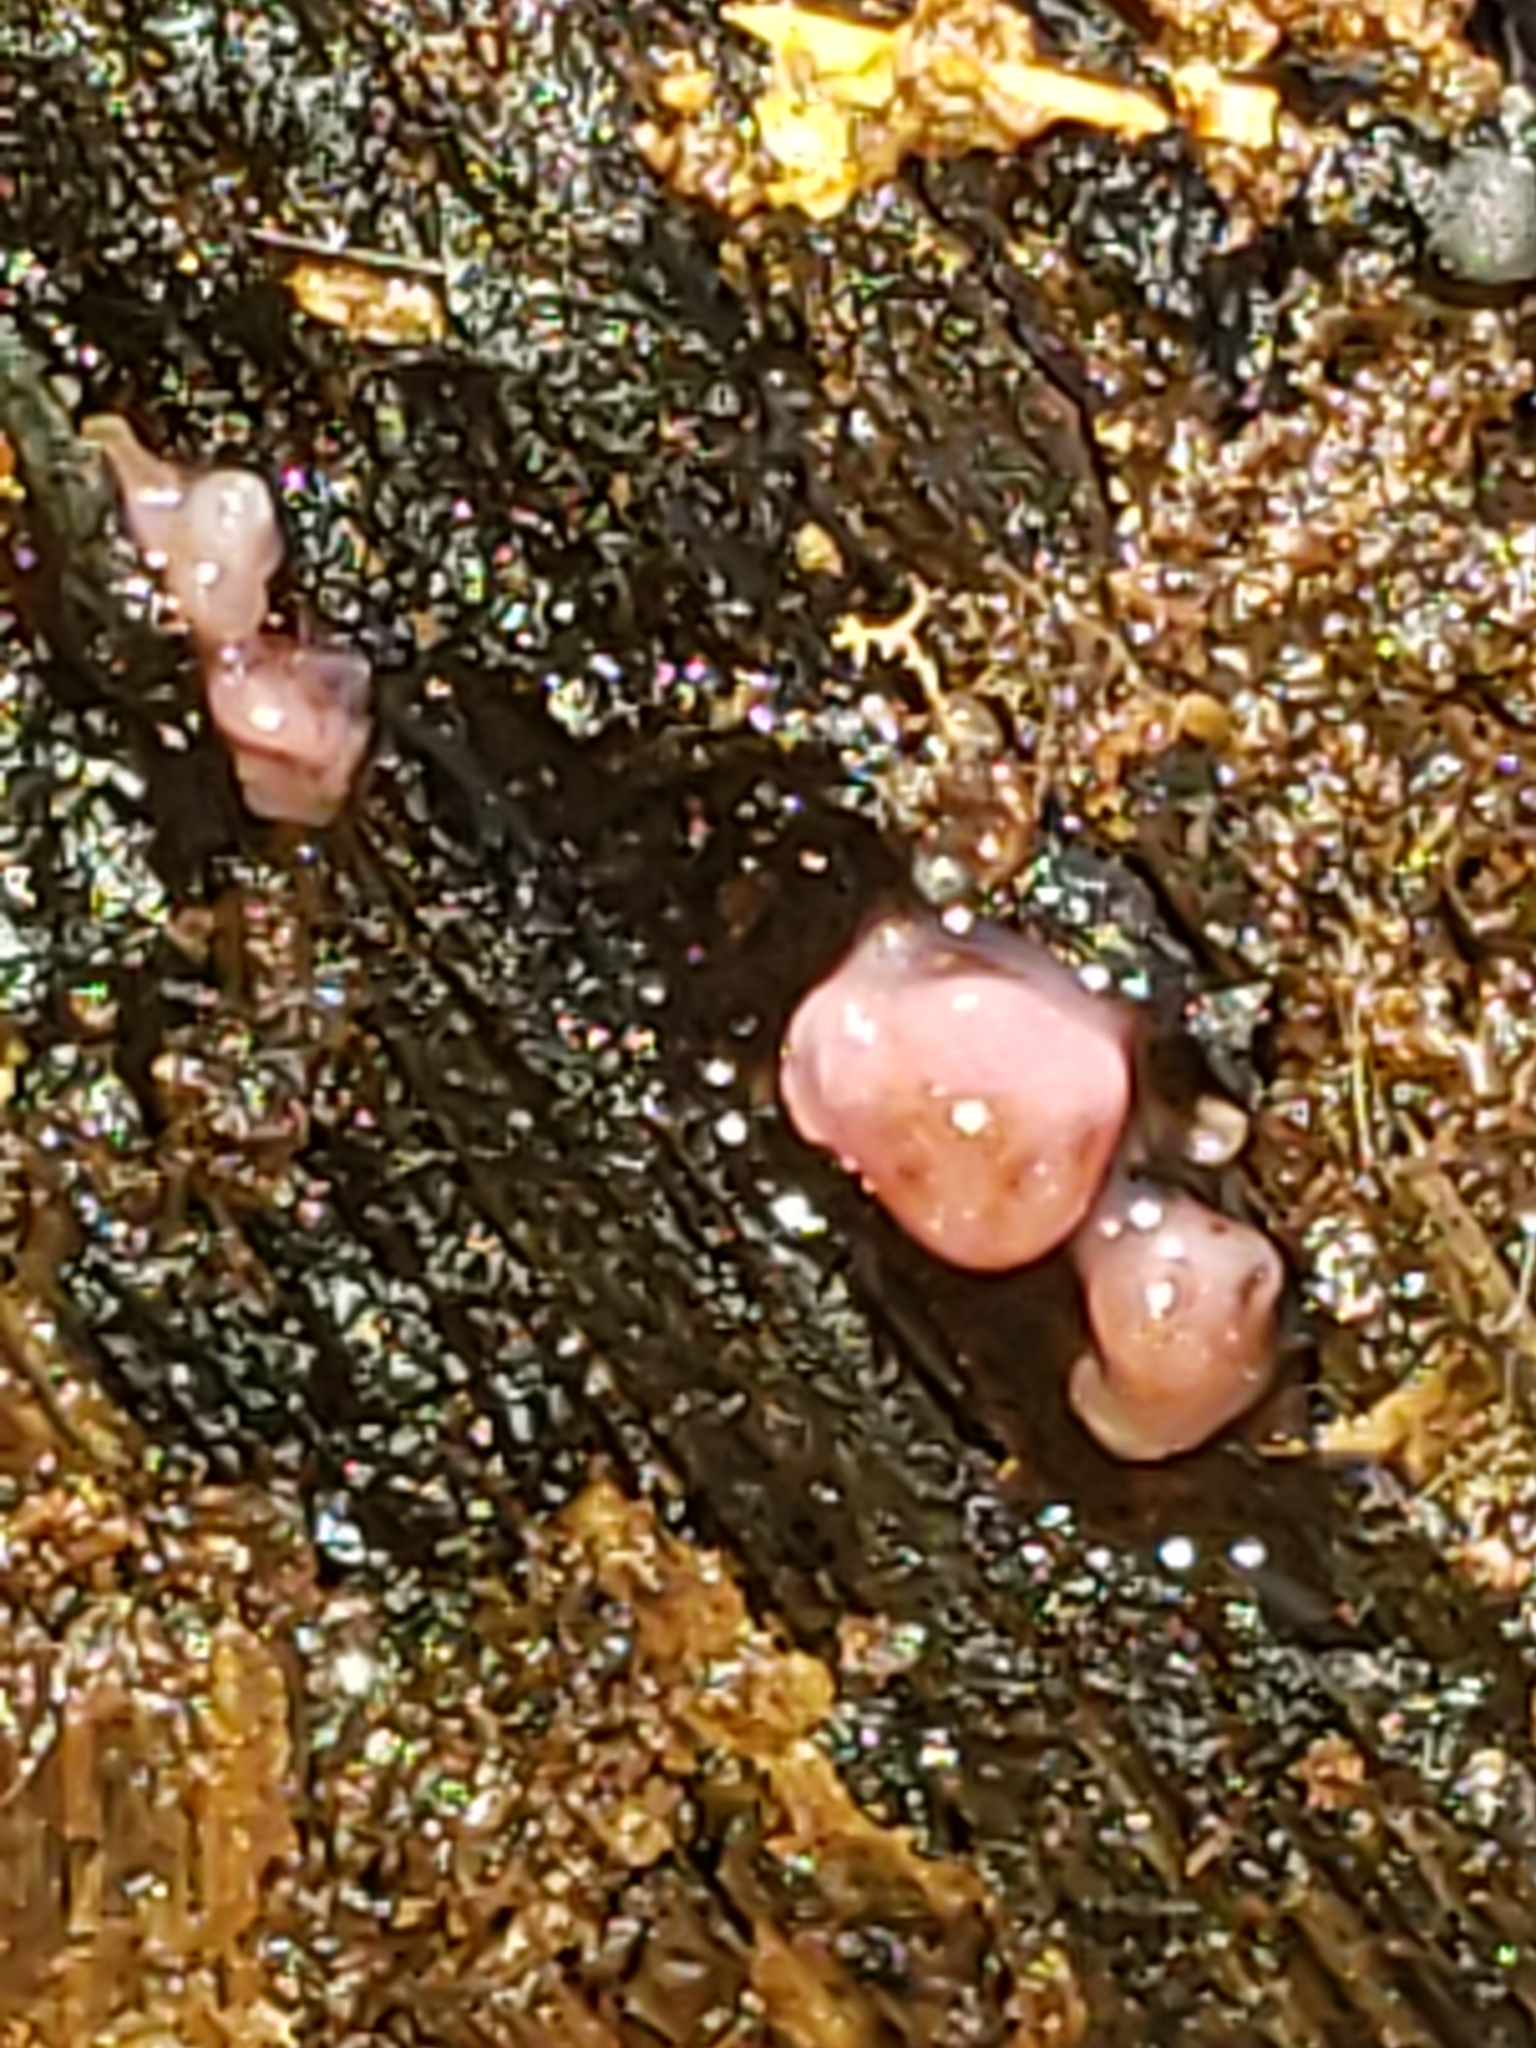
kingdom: Fungi
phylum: Ascomycota
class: Leotiomycetes
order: Helotiales
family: Gelatinodiscaceae
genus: Ascocoryne
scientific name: Ascocoryne sarcoides
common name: Purple jellydisc
